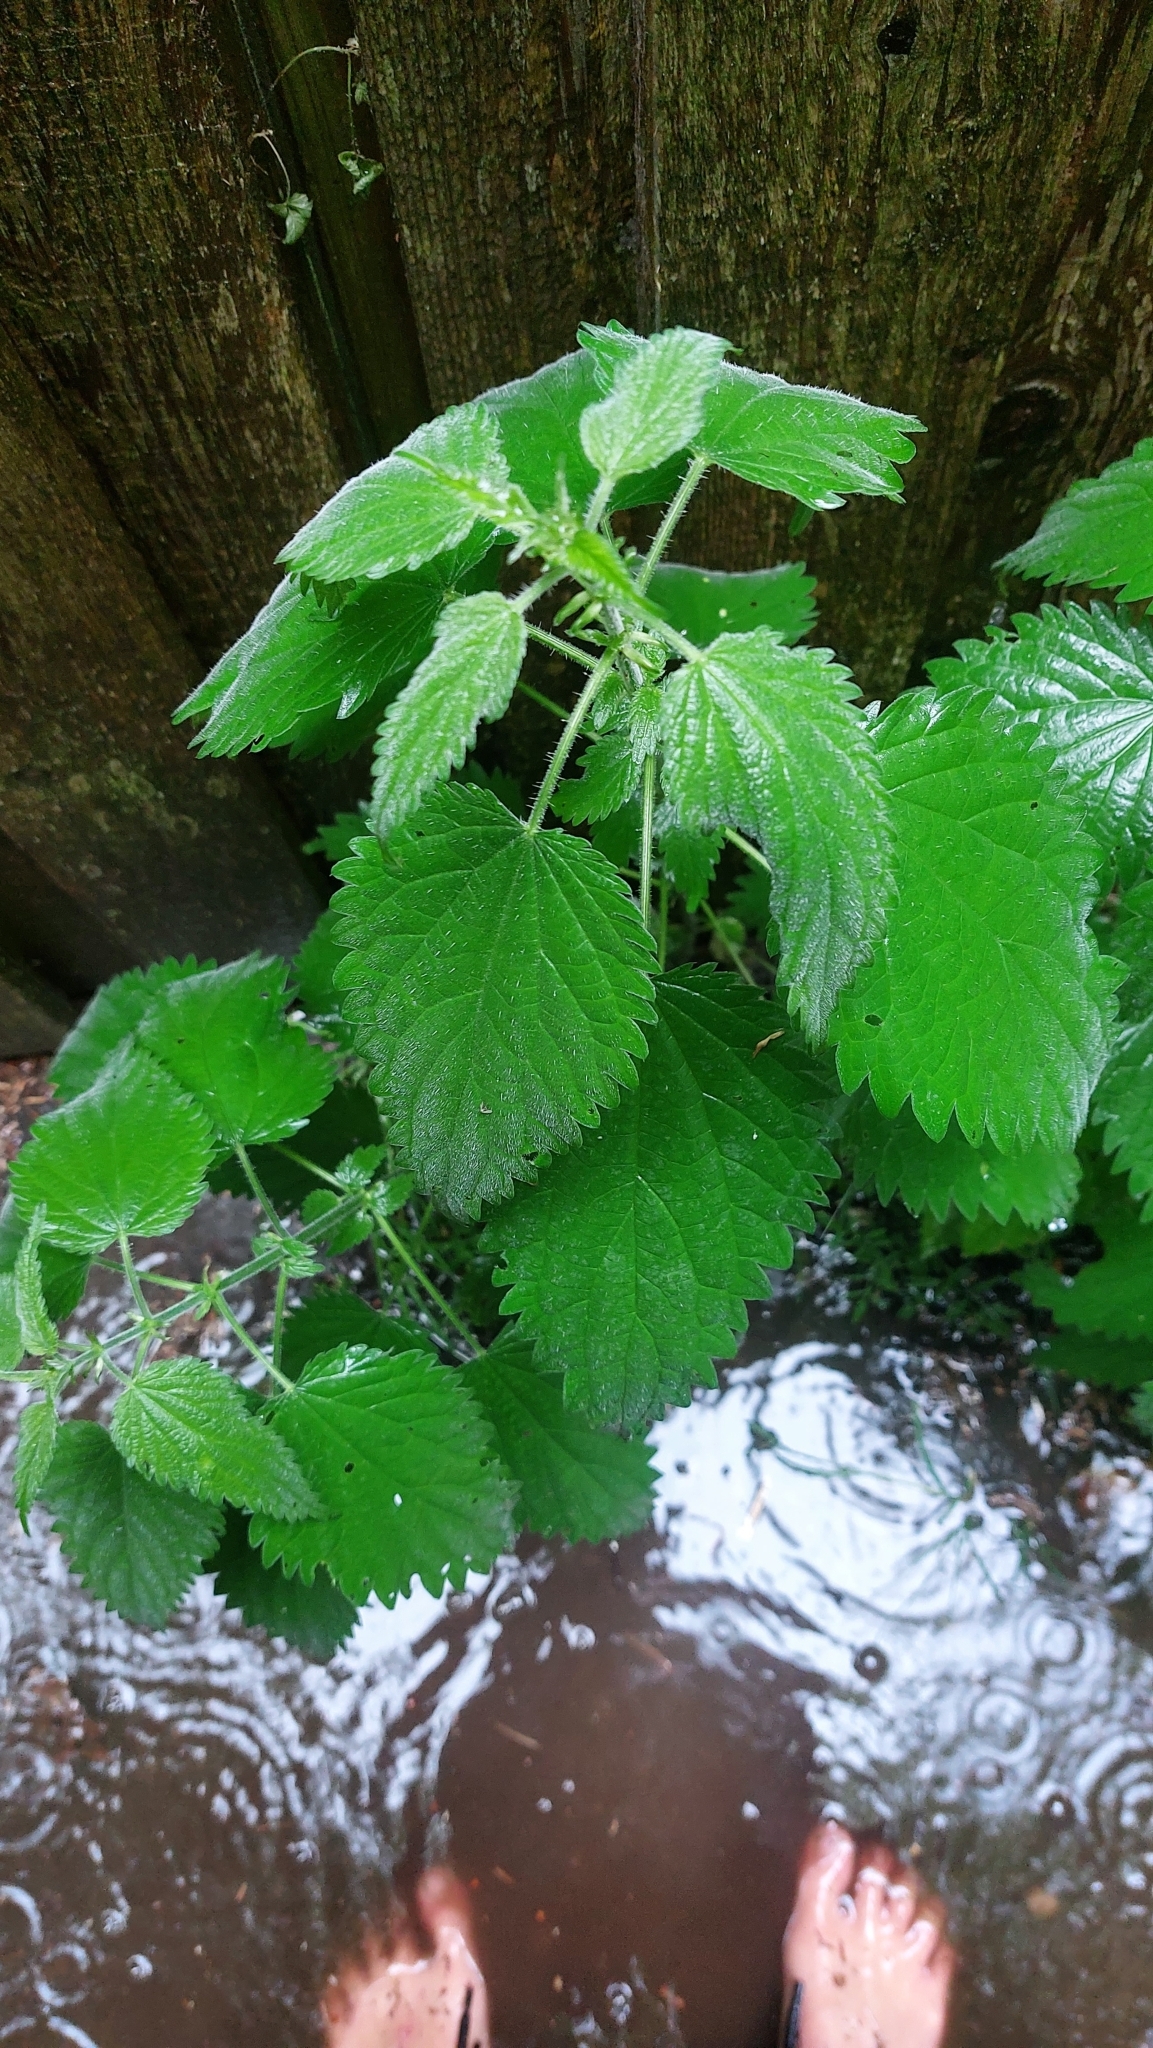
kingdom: Plantae
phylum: Tracheophyta
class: Magnoliopsida
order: Rosales
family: Urticaceae
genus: Urtica
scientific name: Urtica dioica
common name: Common nettle
